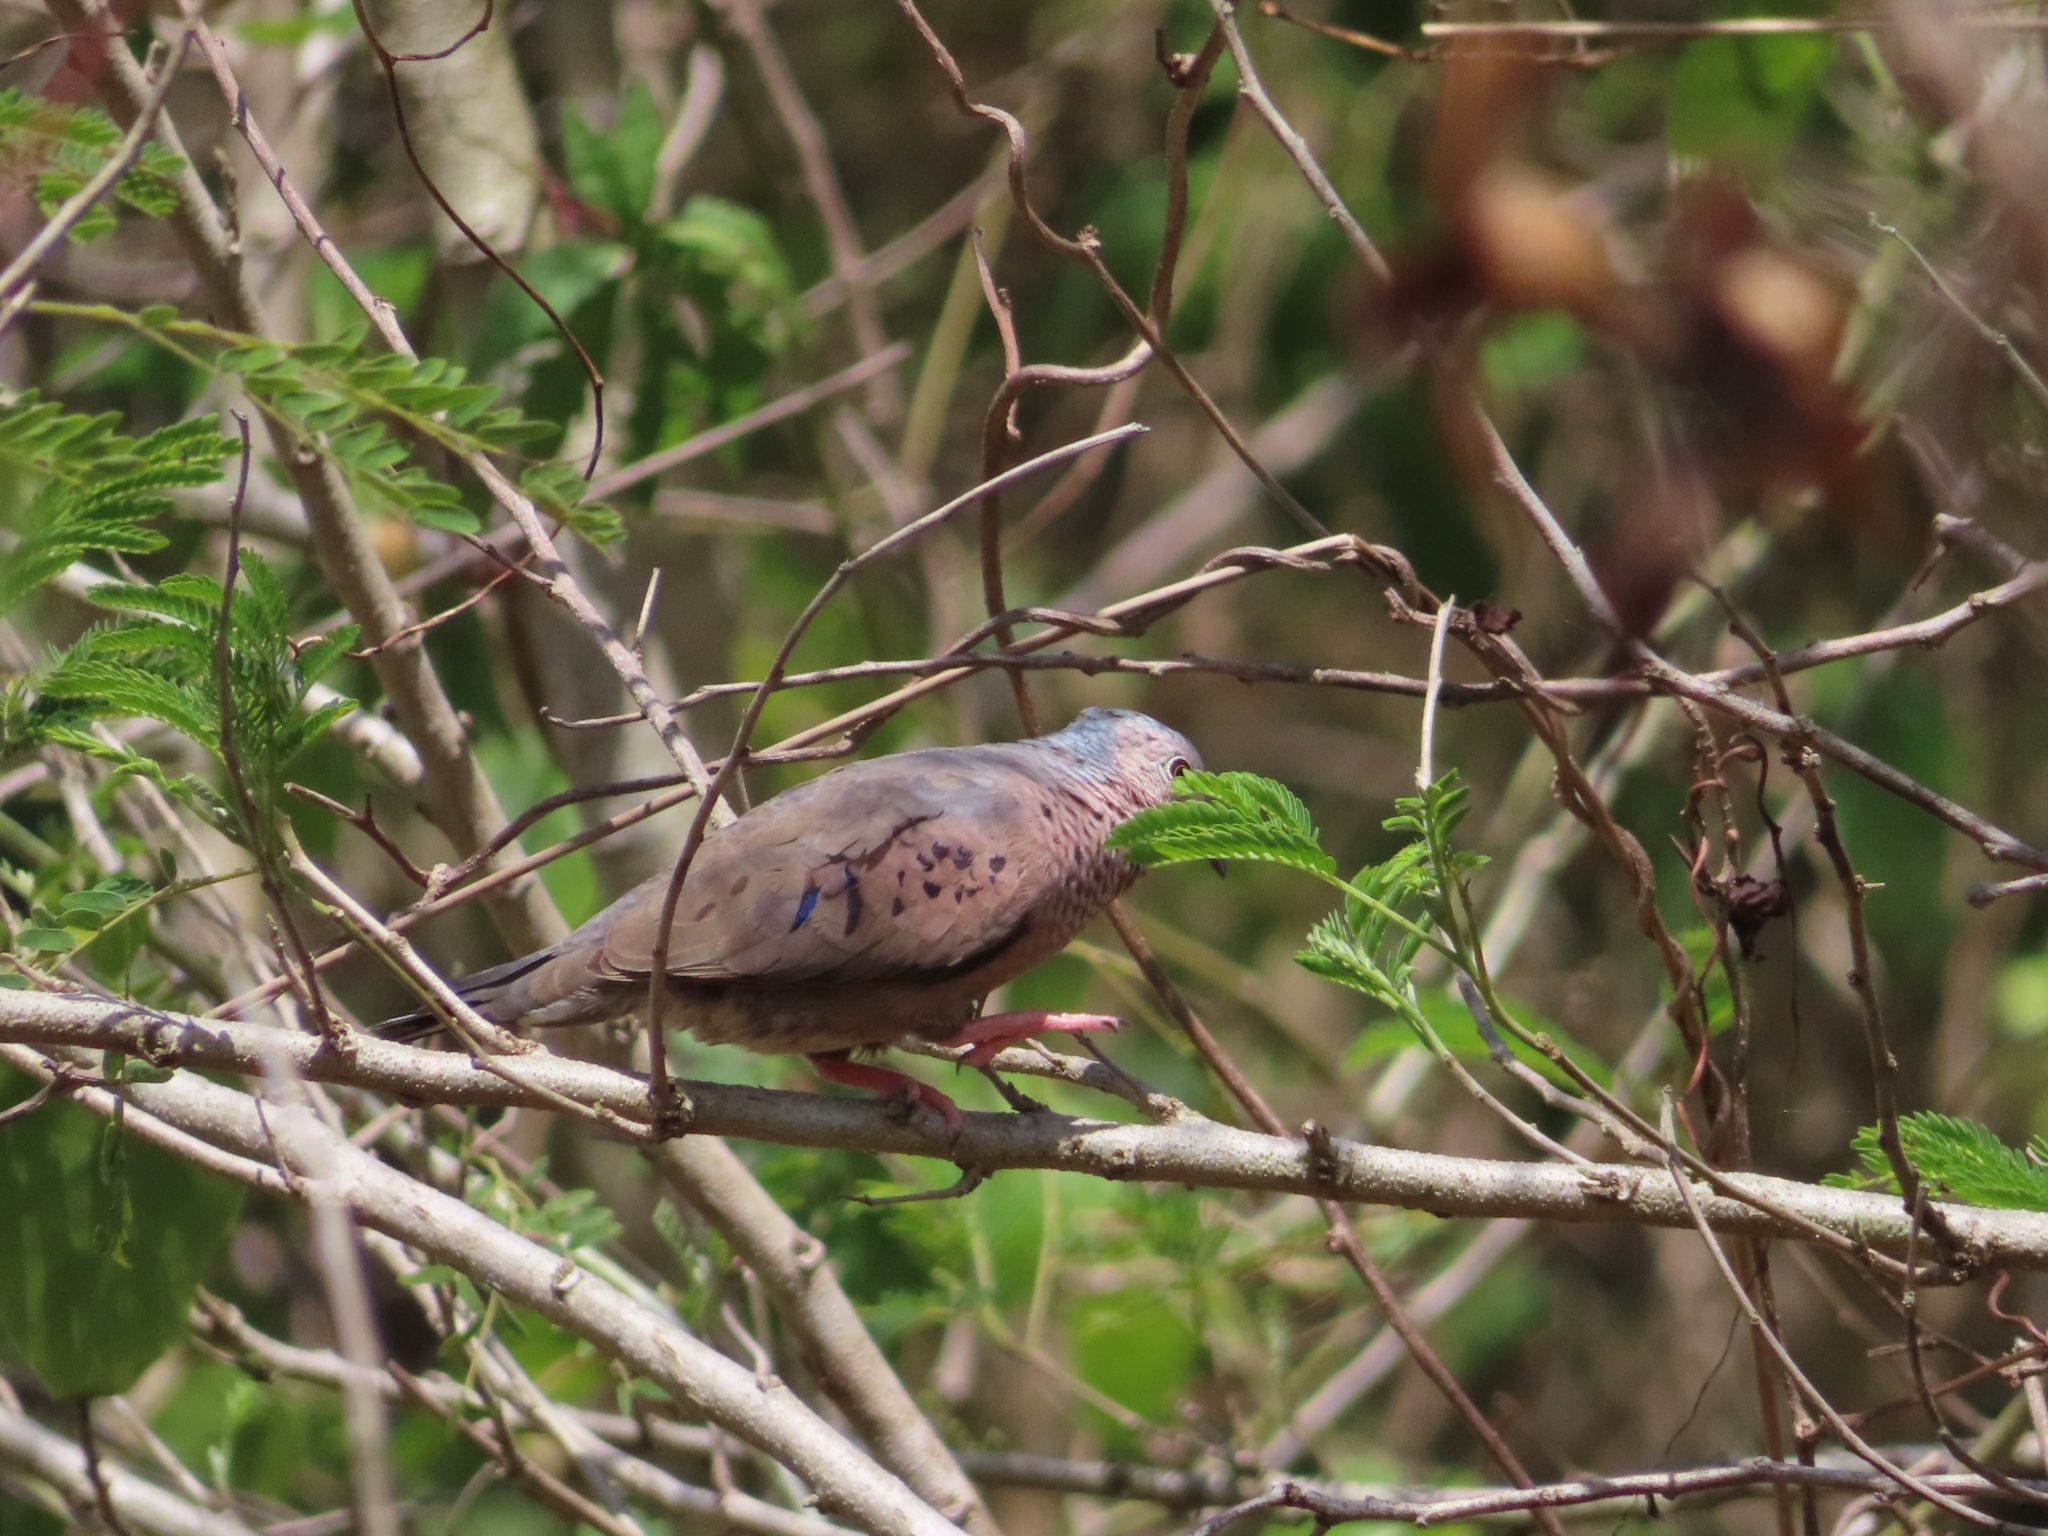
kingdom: Animalia
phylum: Chordata
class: Aves
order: Columbiformes
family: Columbidae
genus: Columbina
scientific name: Columbina passerina
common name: Common ground-dove
